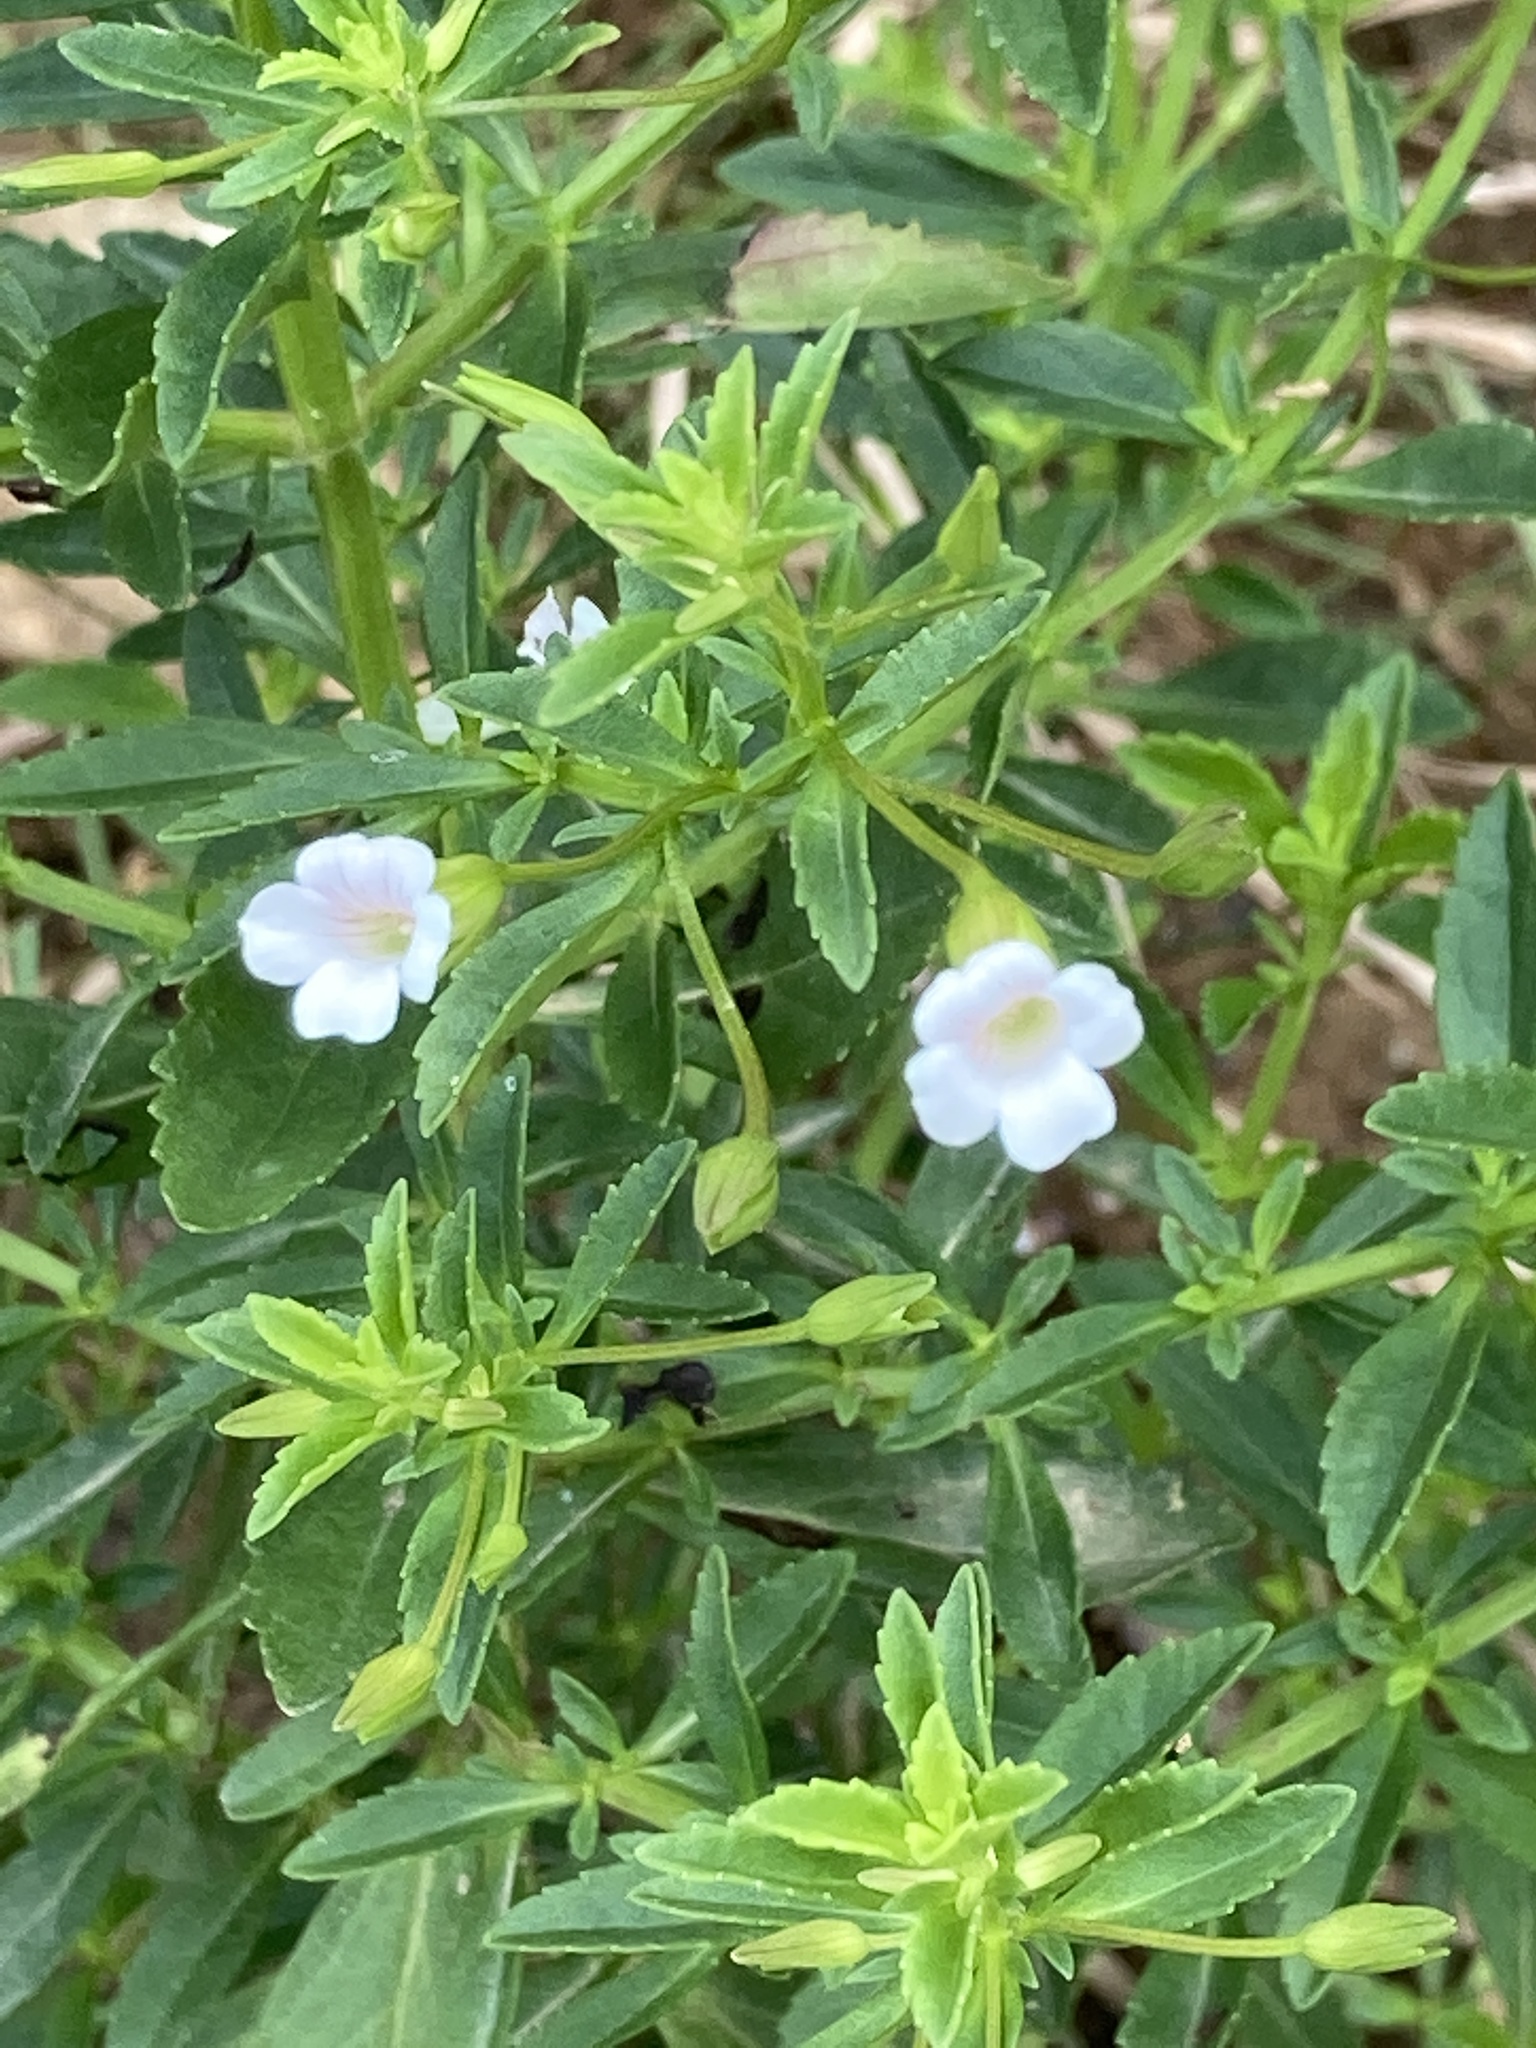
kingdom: Plantae
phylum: Tracheophyta
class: Magnoliopsida
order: Lamiales
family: Plantaginaceae
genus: Mecardonia
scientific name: Mecardonia acuminata
